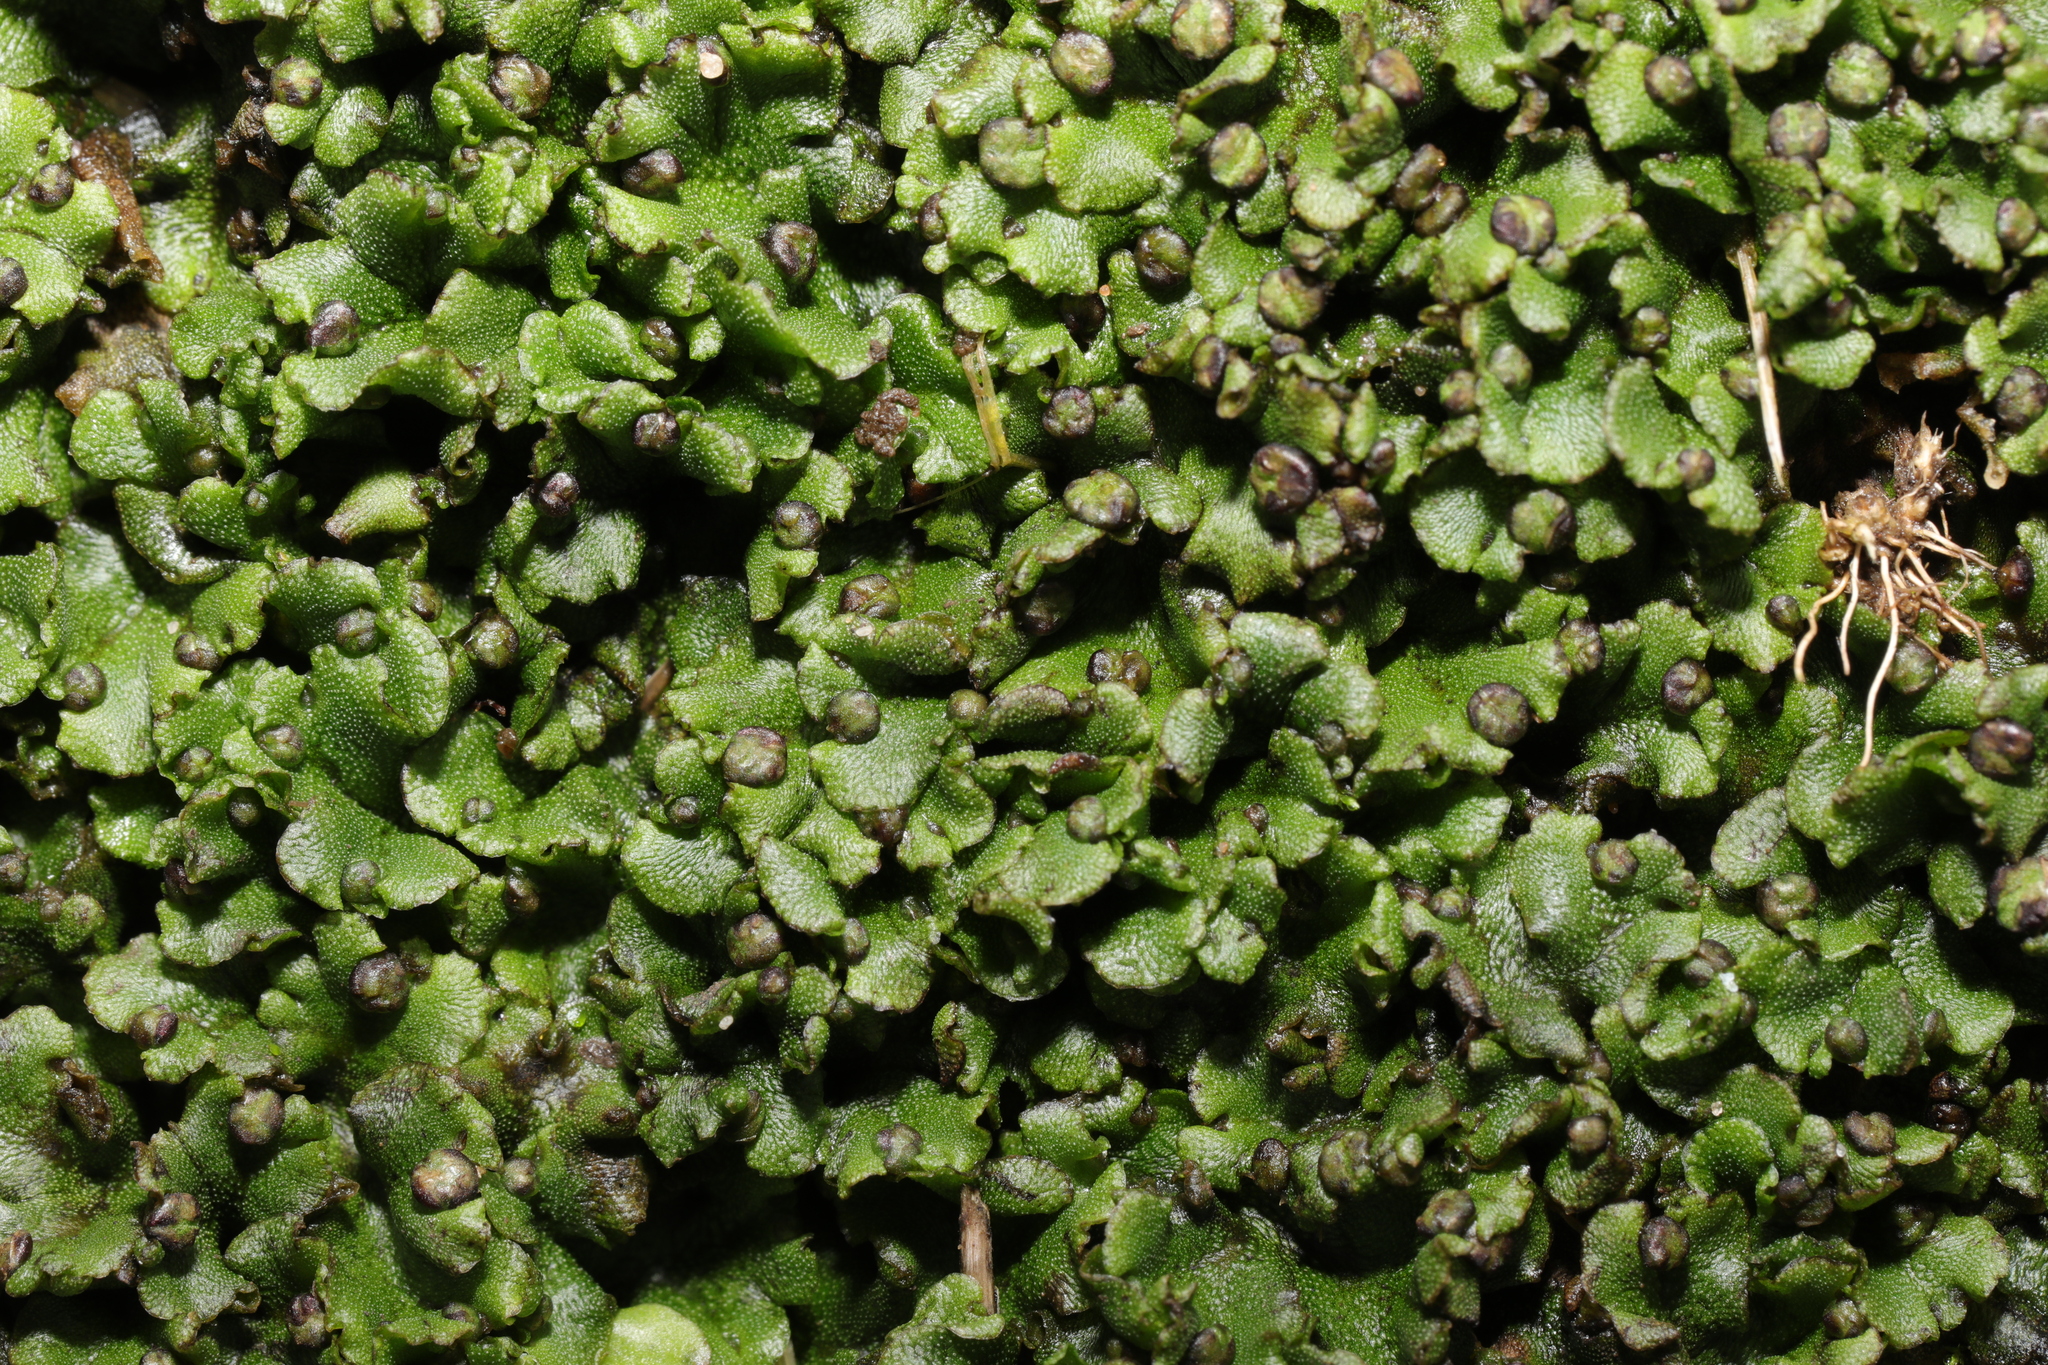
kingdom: Plantae
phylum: Marchantiophyta
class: Marchantiopsida
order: Marchantiales
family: Marchantiaceae
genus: Marchantia
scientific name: Marchantia polymorpha
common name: Common liverwort
